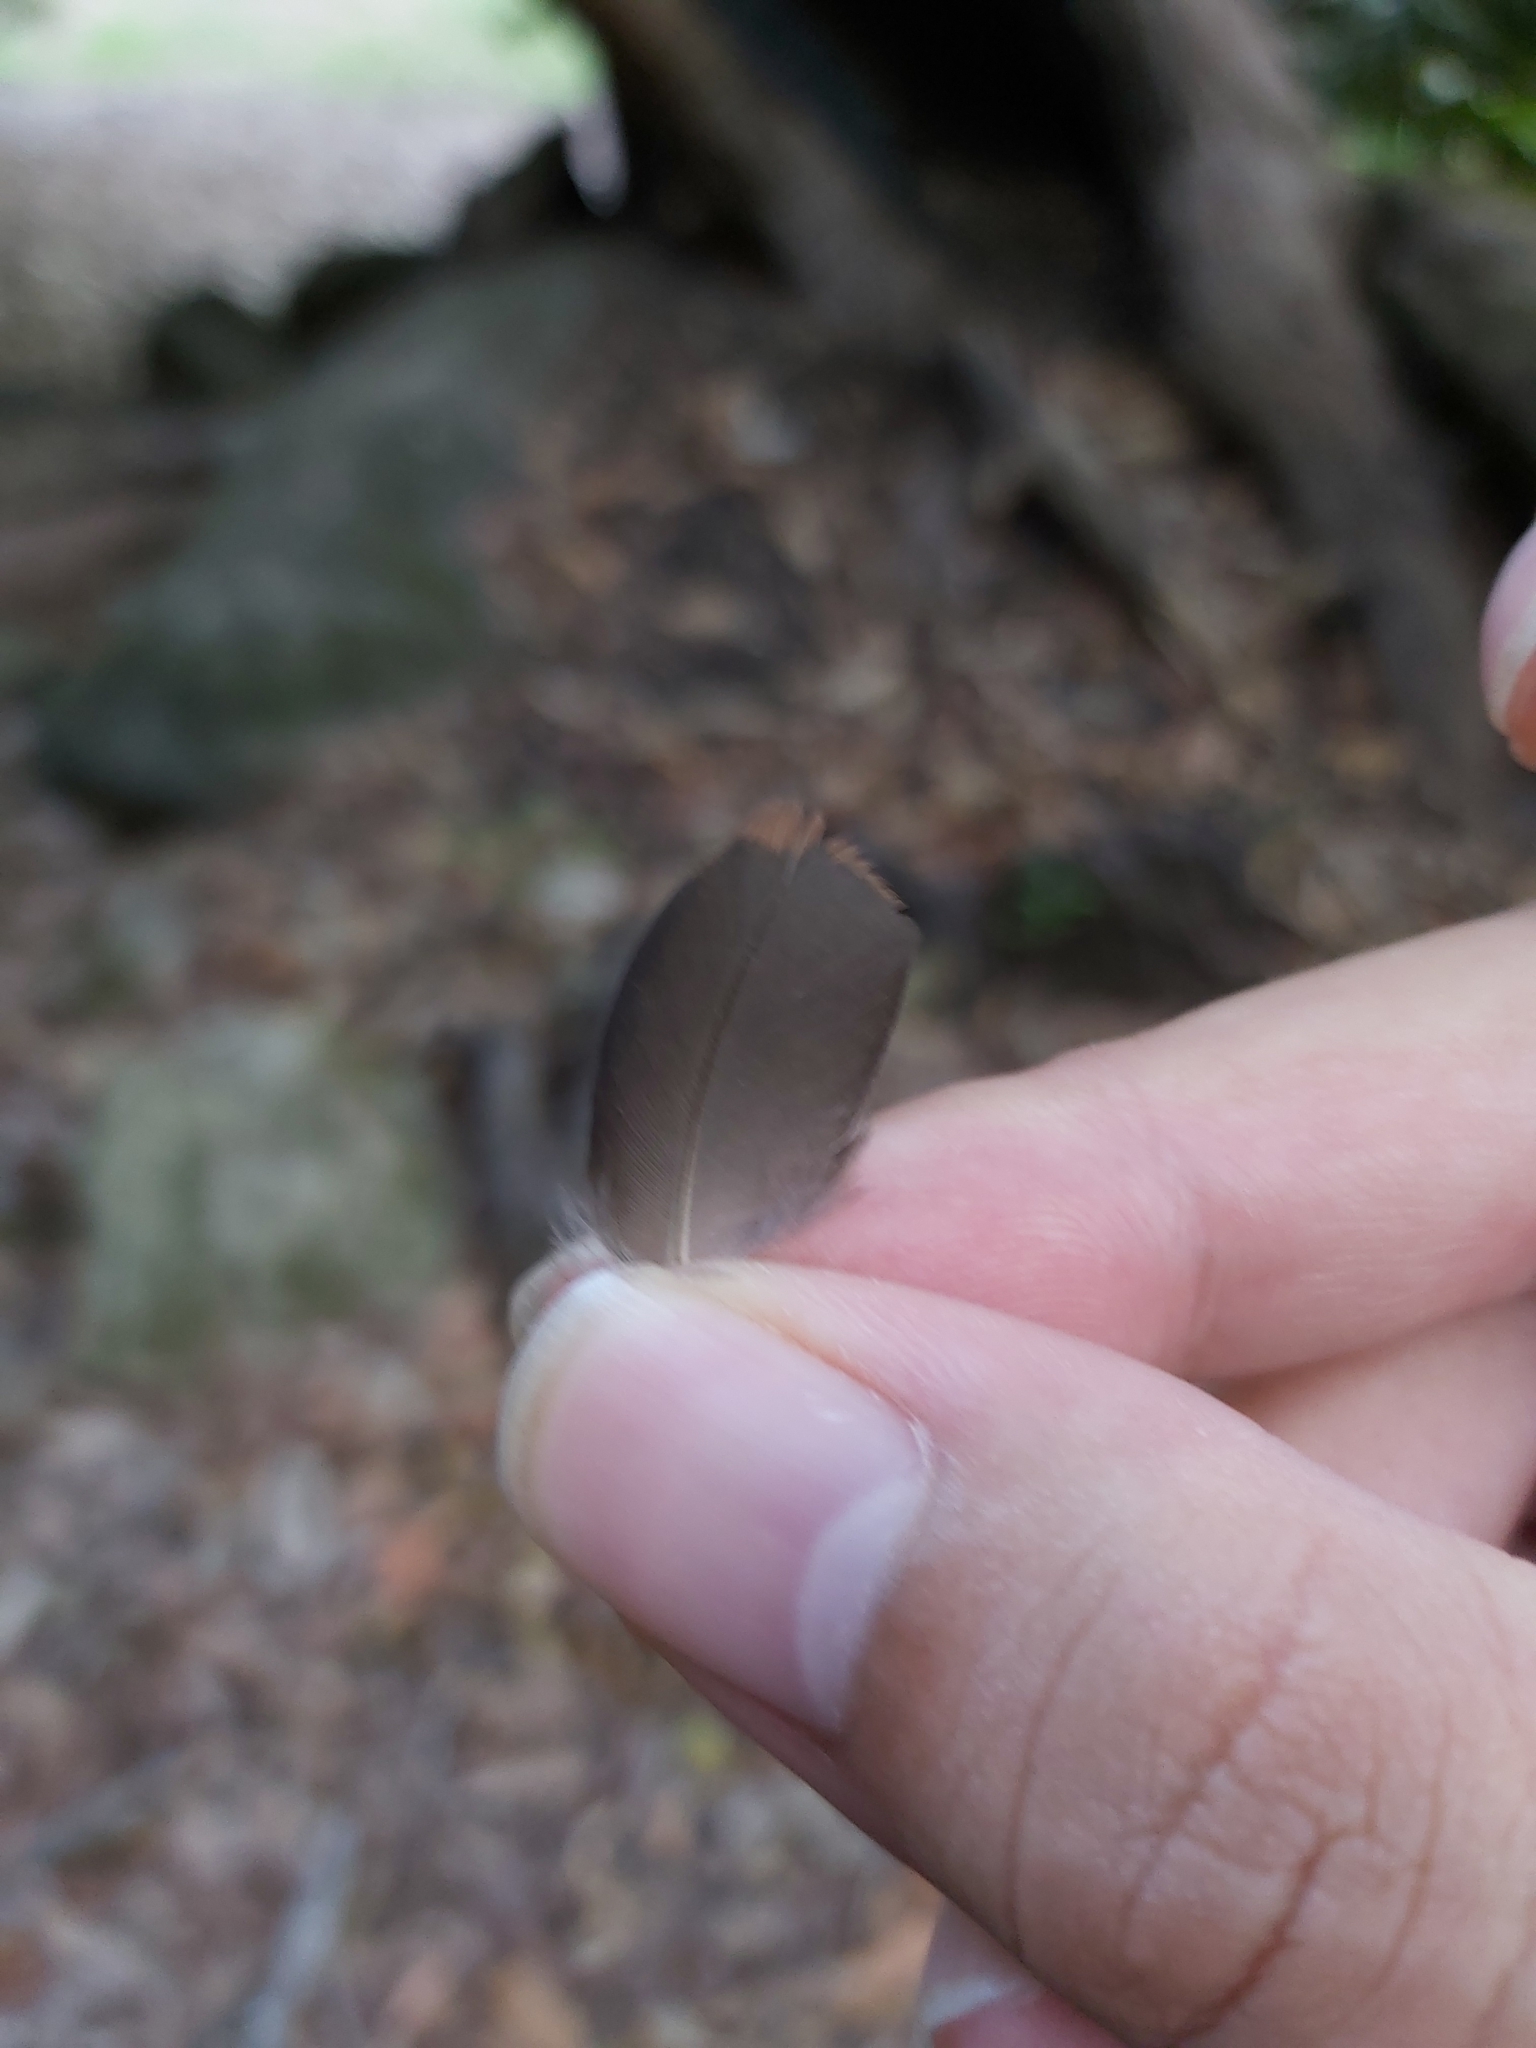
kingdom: Animalia
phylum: Chordata
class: Aves
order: Columbiformes
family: Columbidae
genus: Macropygia
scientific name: Macropygia phasianella
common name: Brown cuckoo-dove
